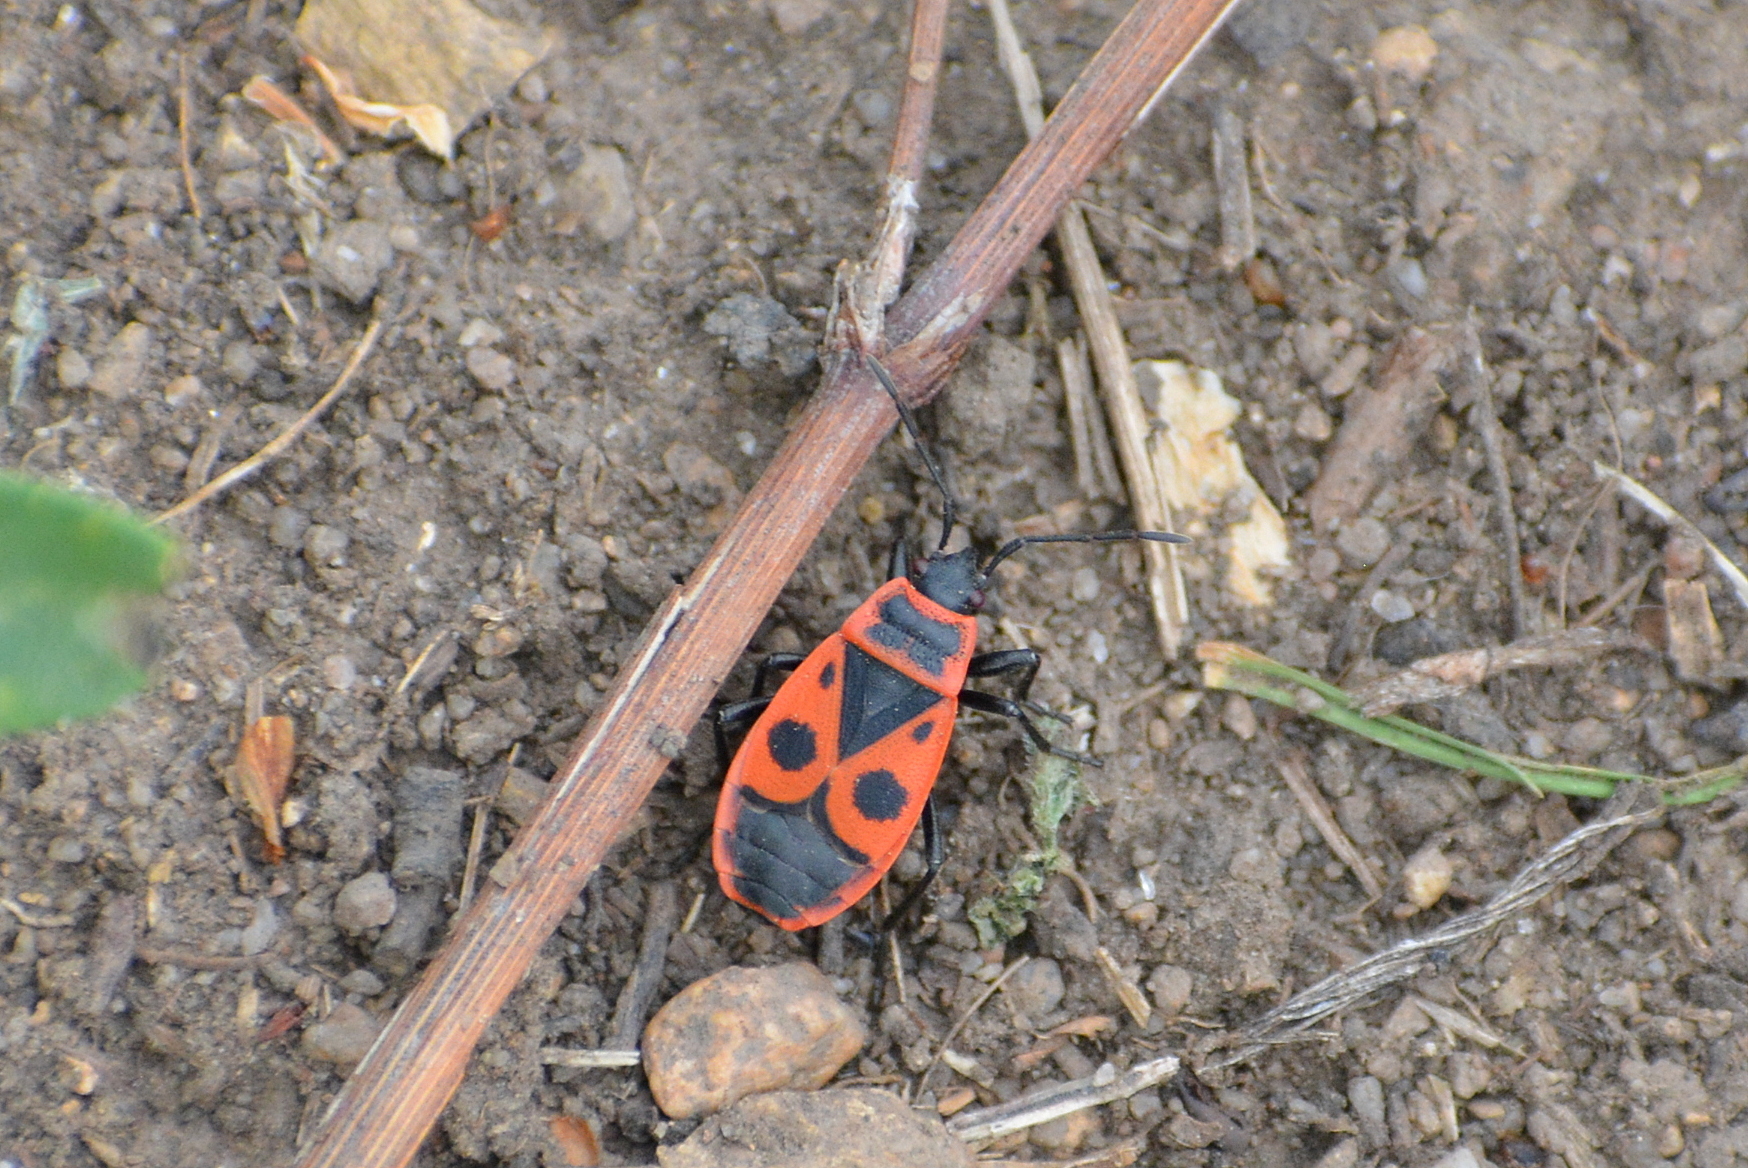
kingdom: Animalia
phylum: Arthropoda
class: Insecta
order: Hemiptera
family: Pyrrhocoridae
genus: Pyrrhocoris
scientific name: Pyrrhocoris apterus
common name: Firebug
